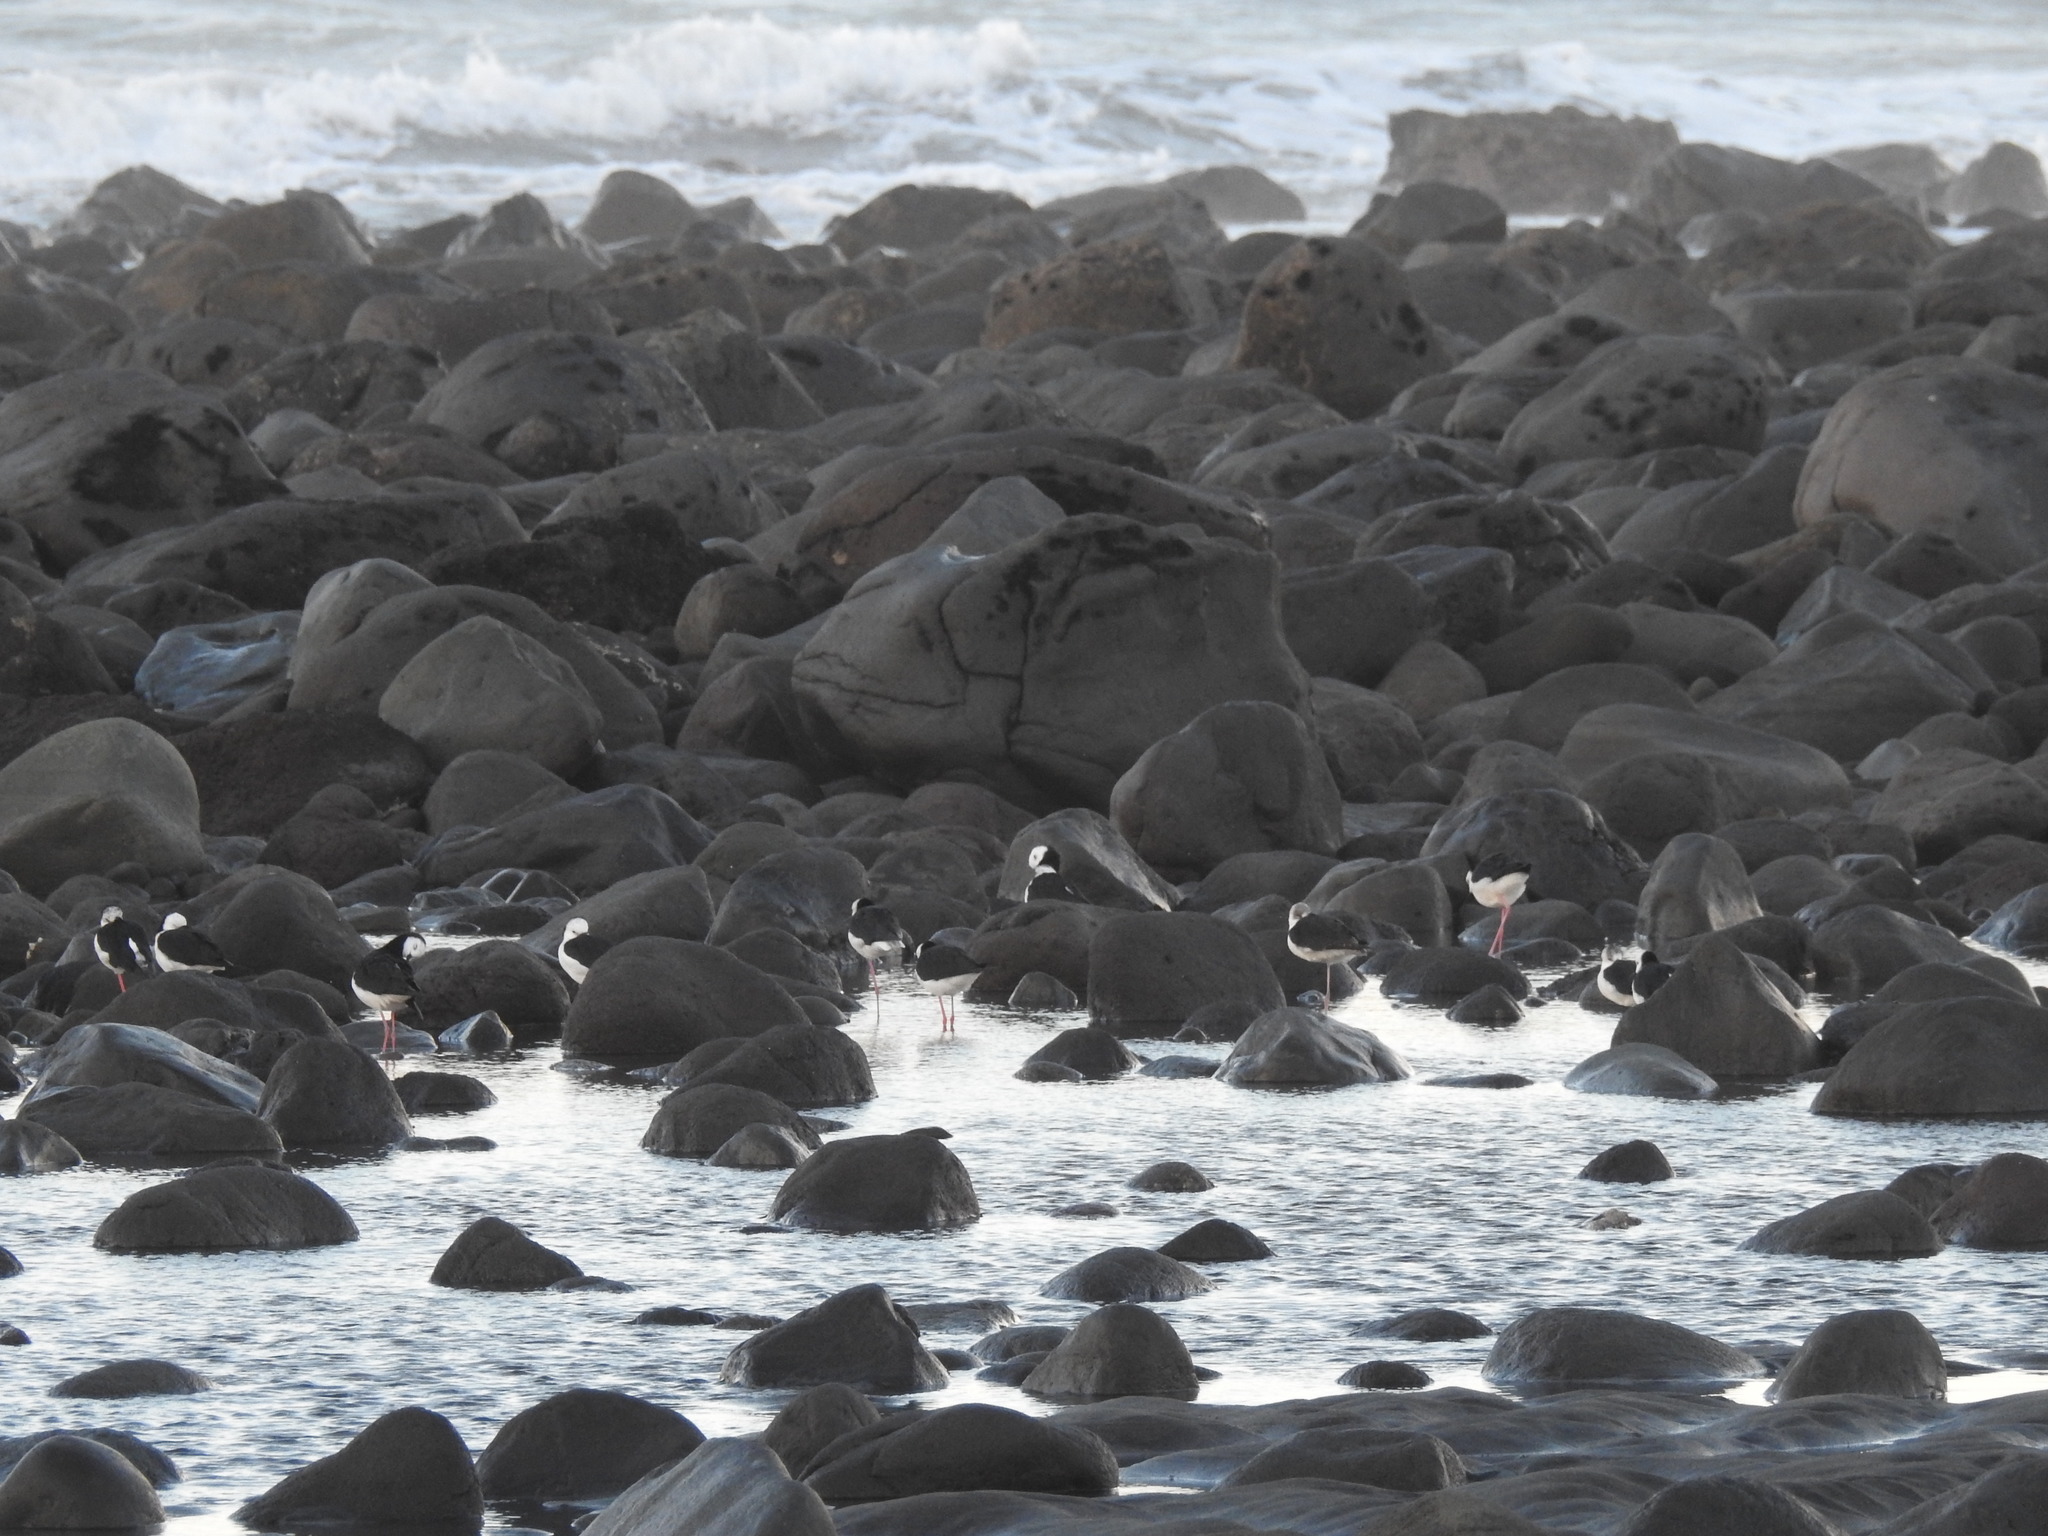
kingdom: Animalia
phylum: Chordata
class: Aves
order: Charadriiformes
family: Recurvirostridae
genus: Himantopus
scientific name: Himantopus leucocephalus
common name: White-headed stilt
